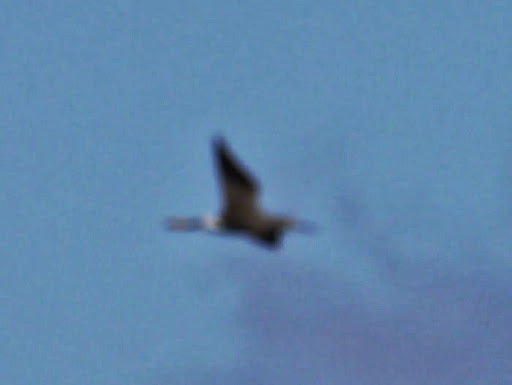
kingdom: Animalia
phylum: Chordata
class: Aves
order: Charadriiformes
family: Scolopacidae
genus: Tringa
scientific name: Tringa melanoleuca
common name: Greater yellowlegs
